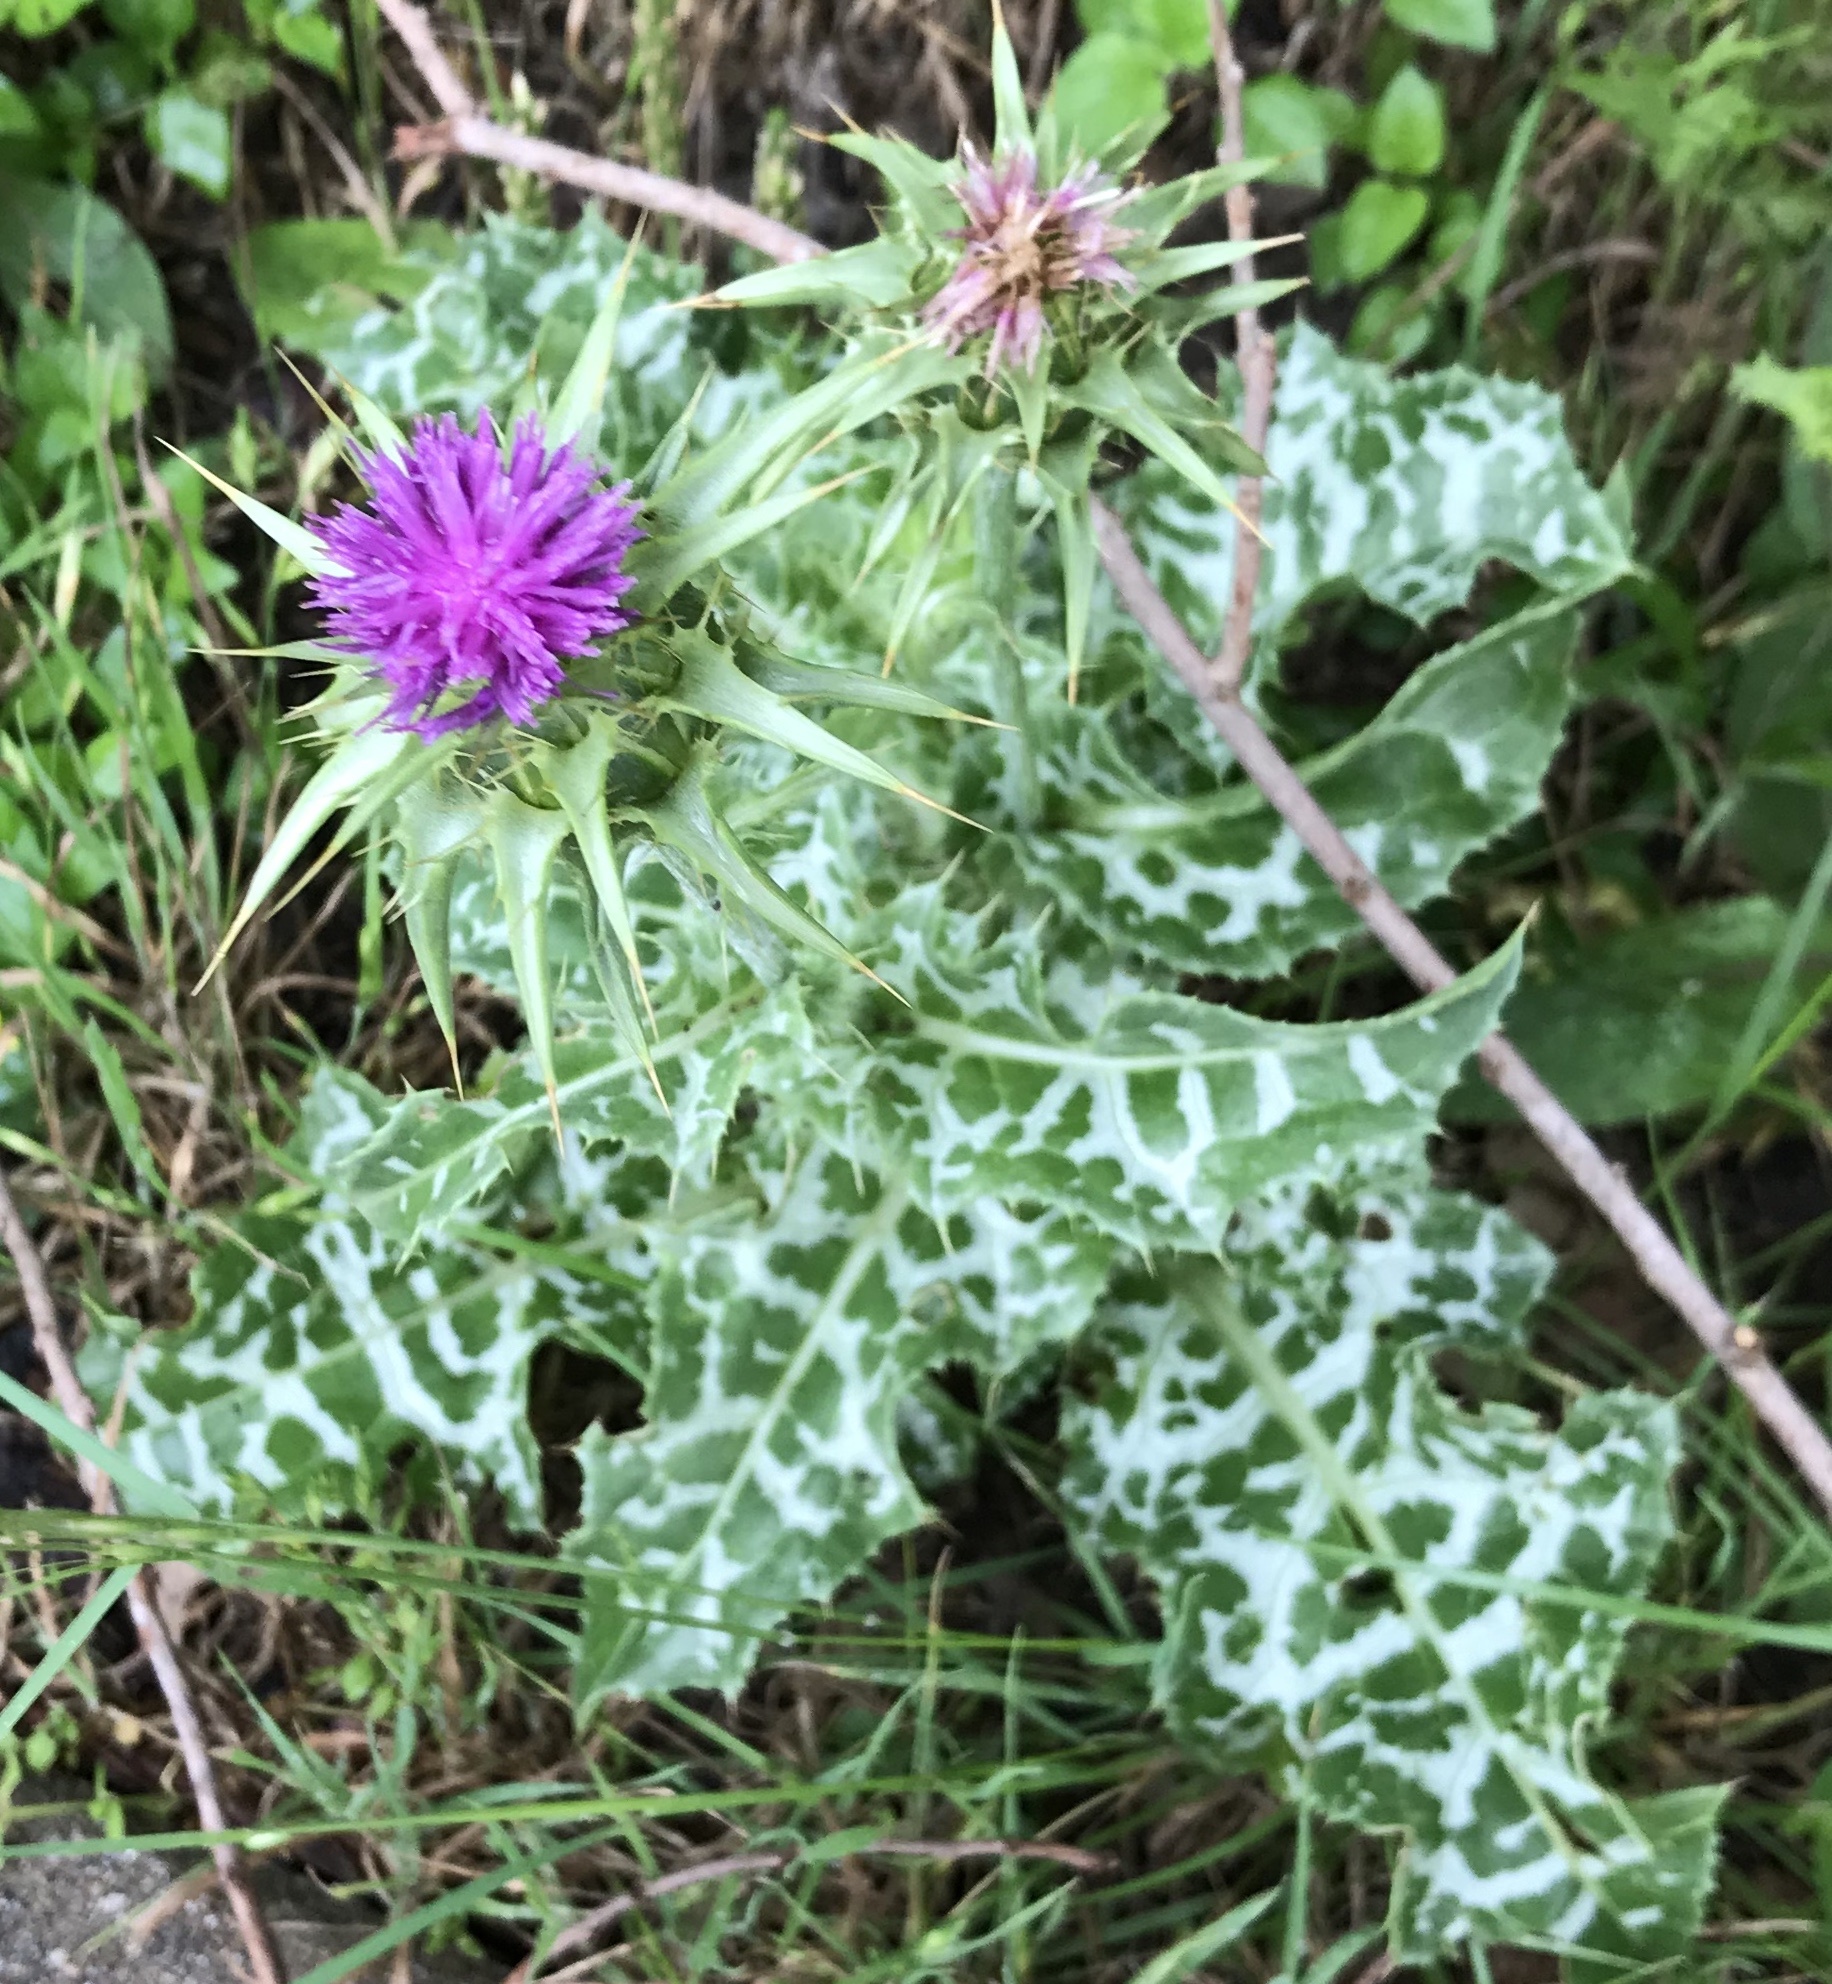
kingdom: Plantae
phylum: Tracheophyta
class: Magnoliopsida
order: Asterales
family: Asteraceae
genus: Silybum
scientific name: Silybum marianum
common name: Milk thistle
